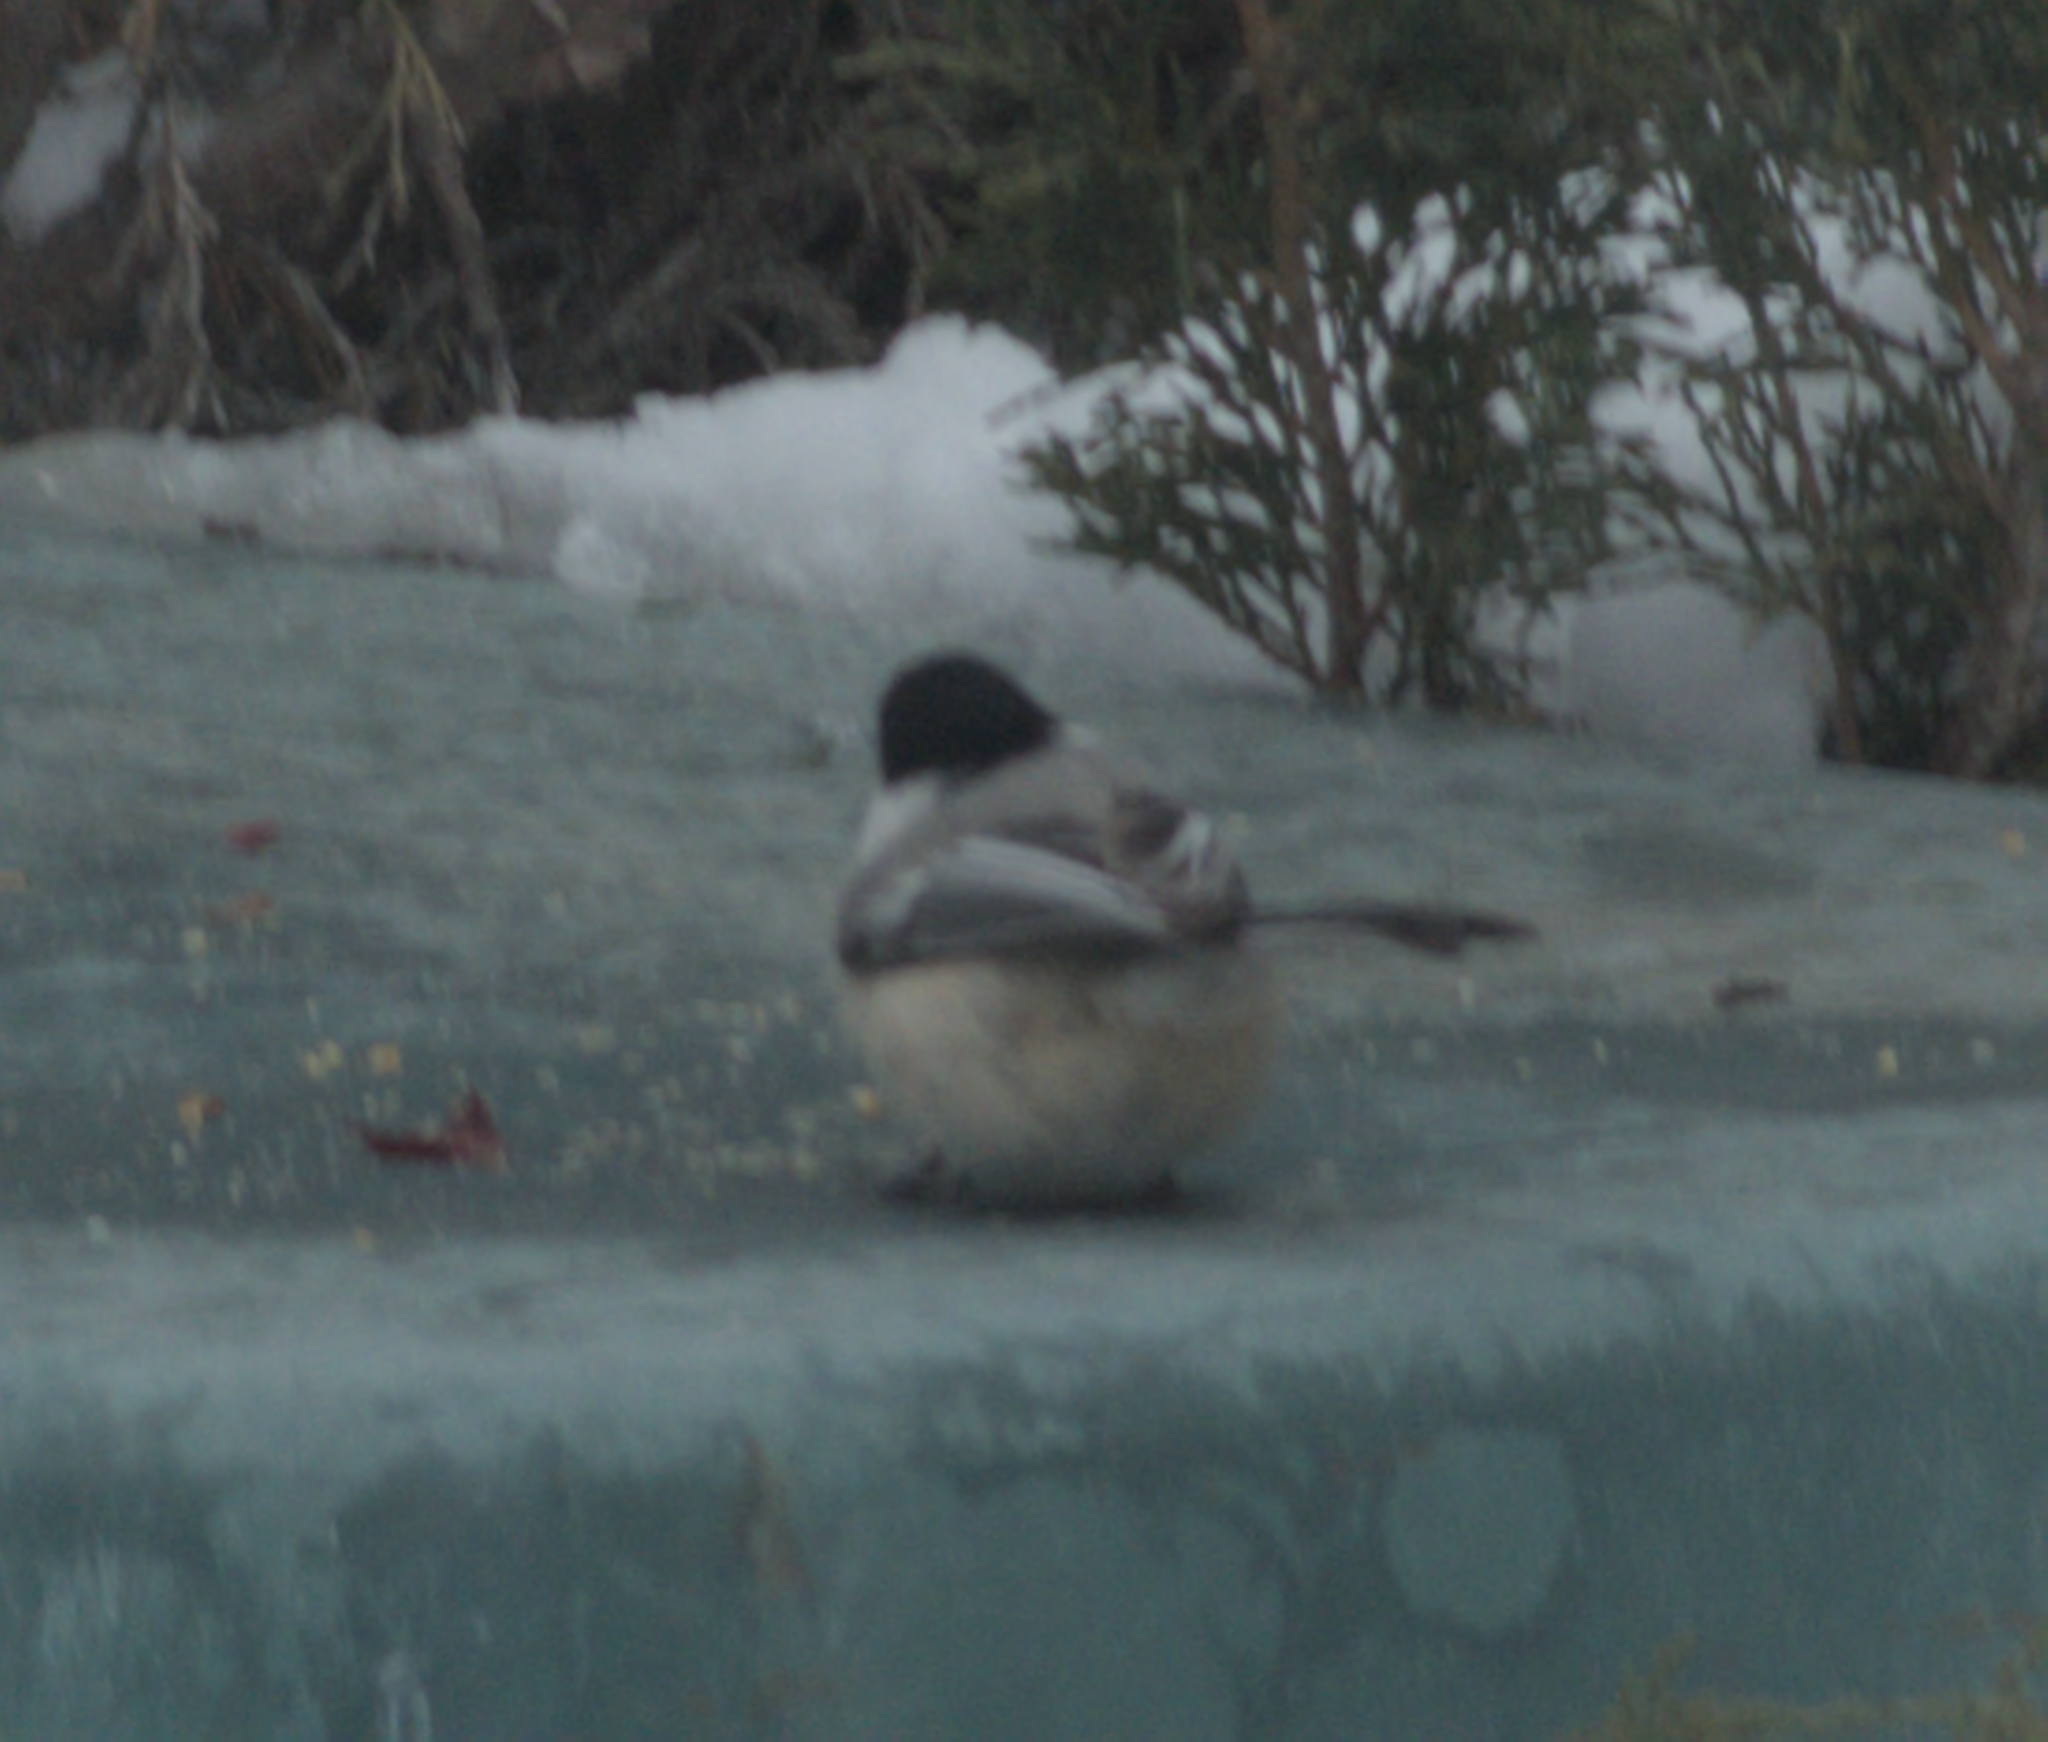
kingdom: Animalia
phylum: Chordata
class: Aves
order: Passeriformes
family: Paridae
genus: Poecile
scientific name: Poecile atricapillus
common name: Black-capped chickadee
